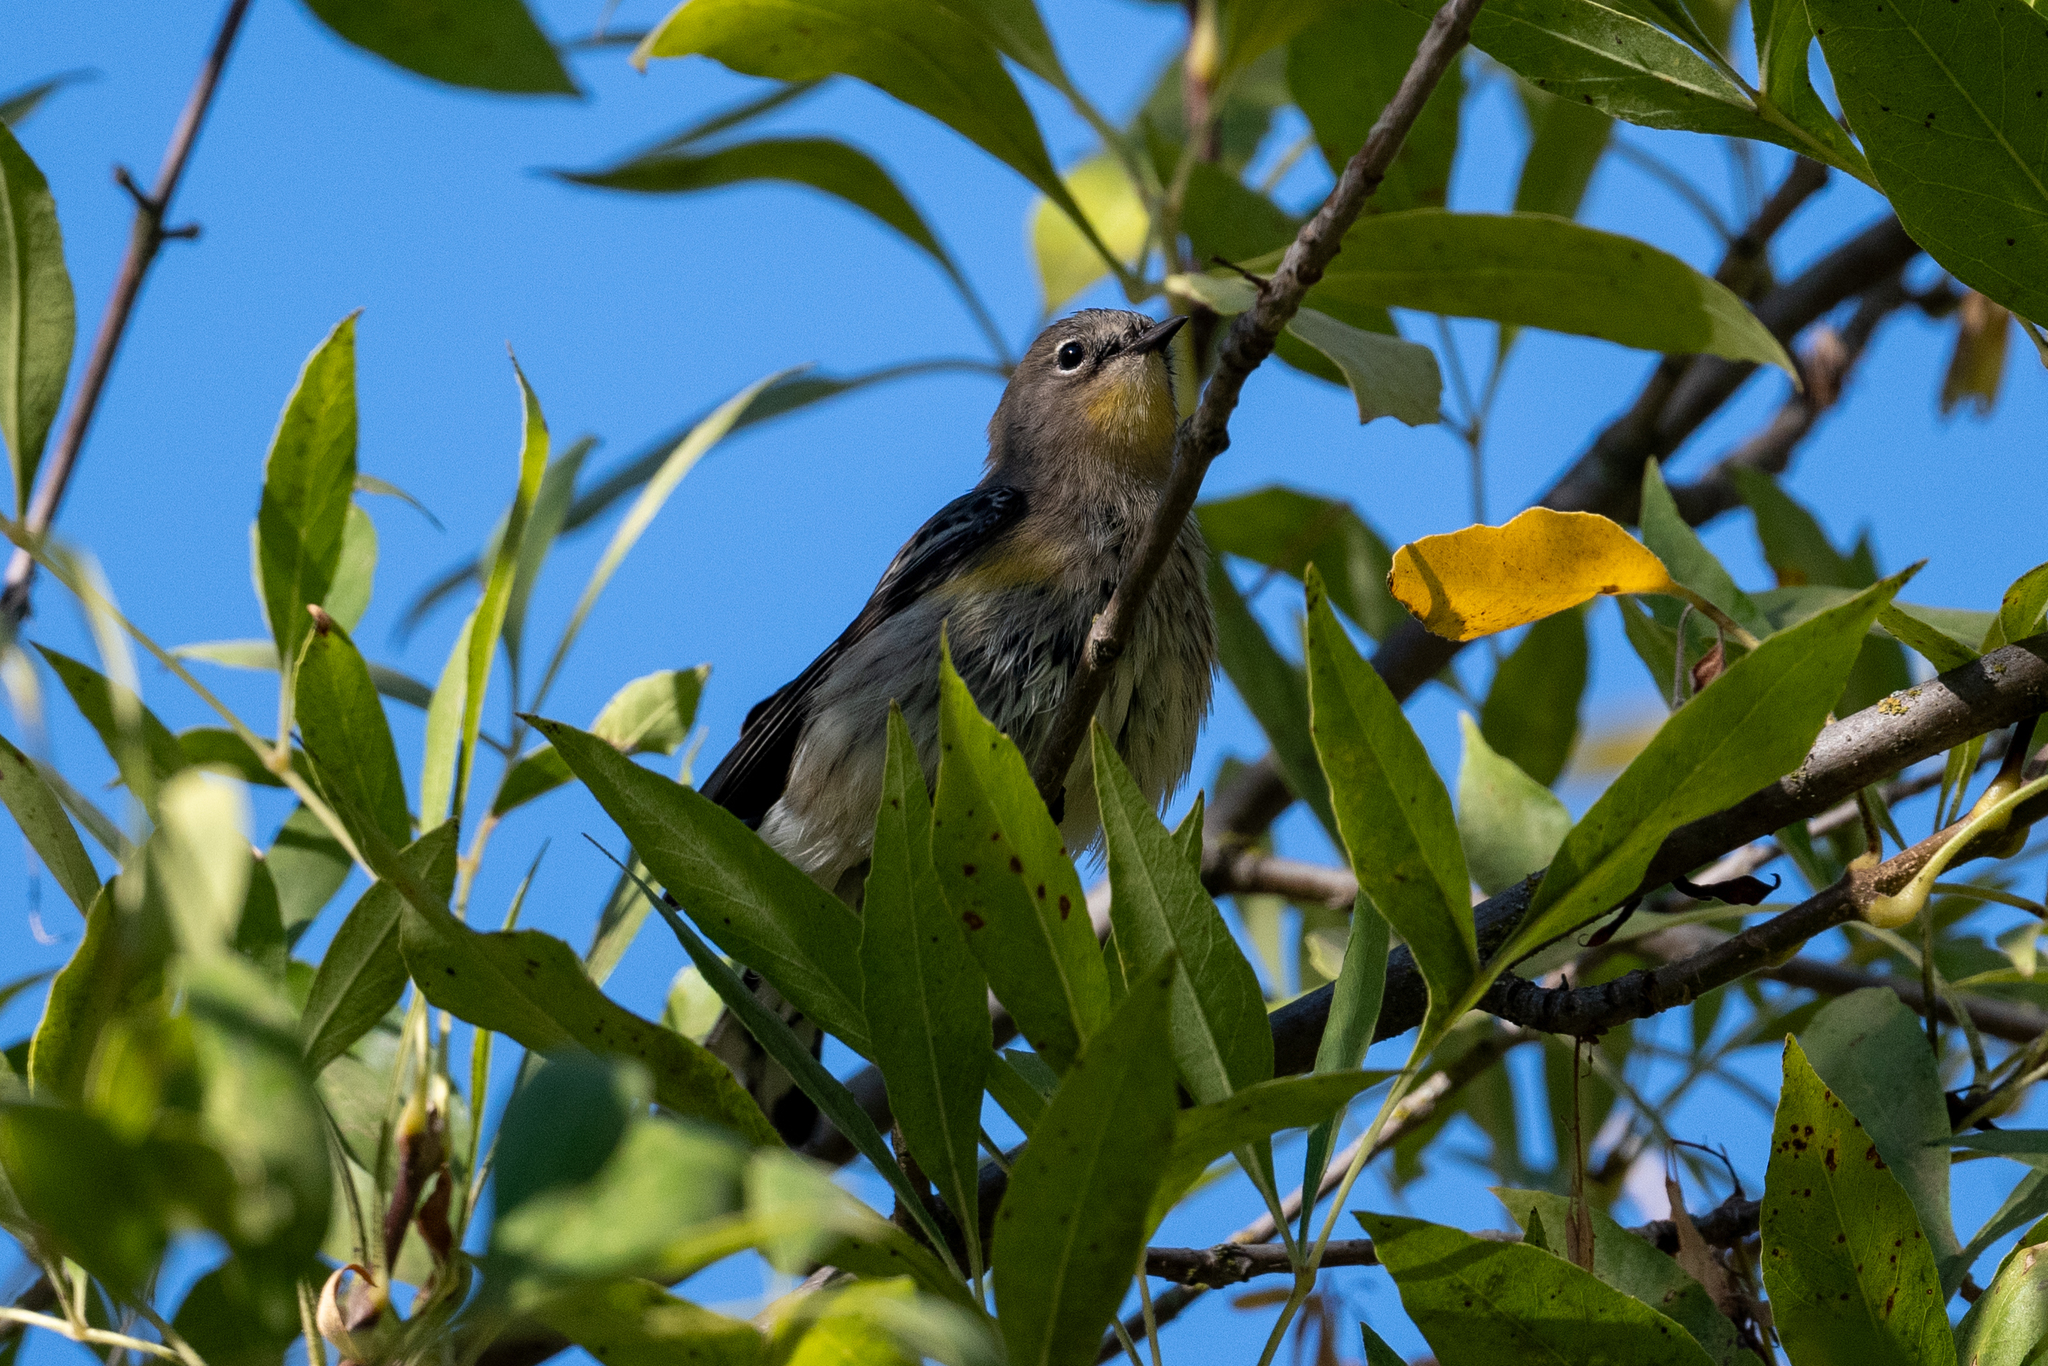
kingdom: Animalia
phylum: Chordata
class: Aves
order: Passeriformes
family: Parulidae
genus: Setophaga
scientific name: Setophaga coronata
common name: Myrtle warbler
